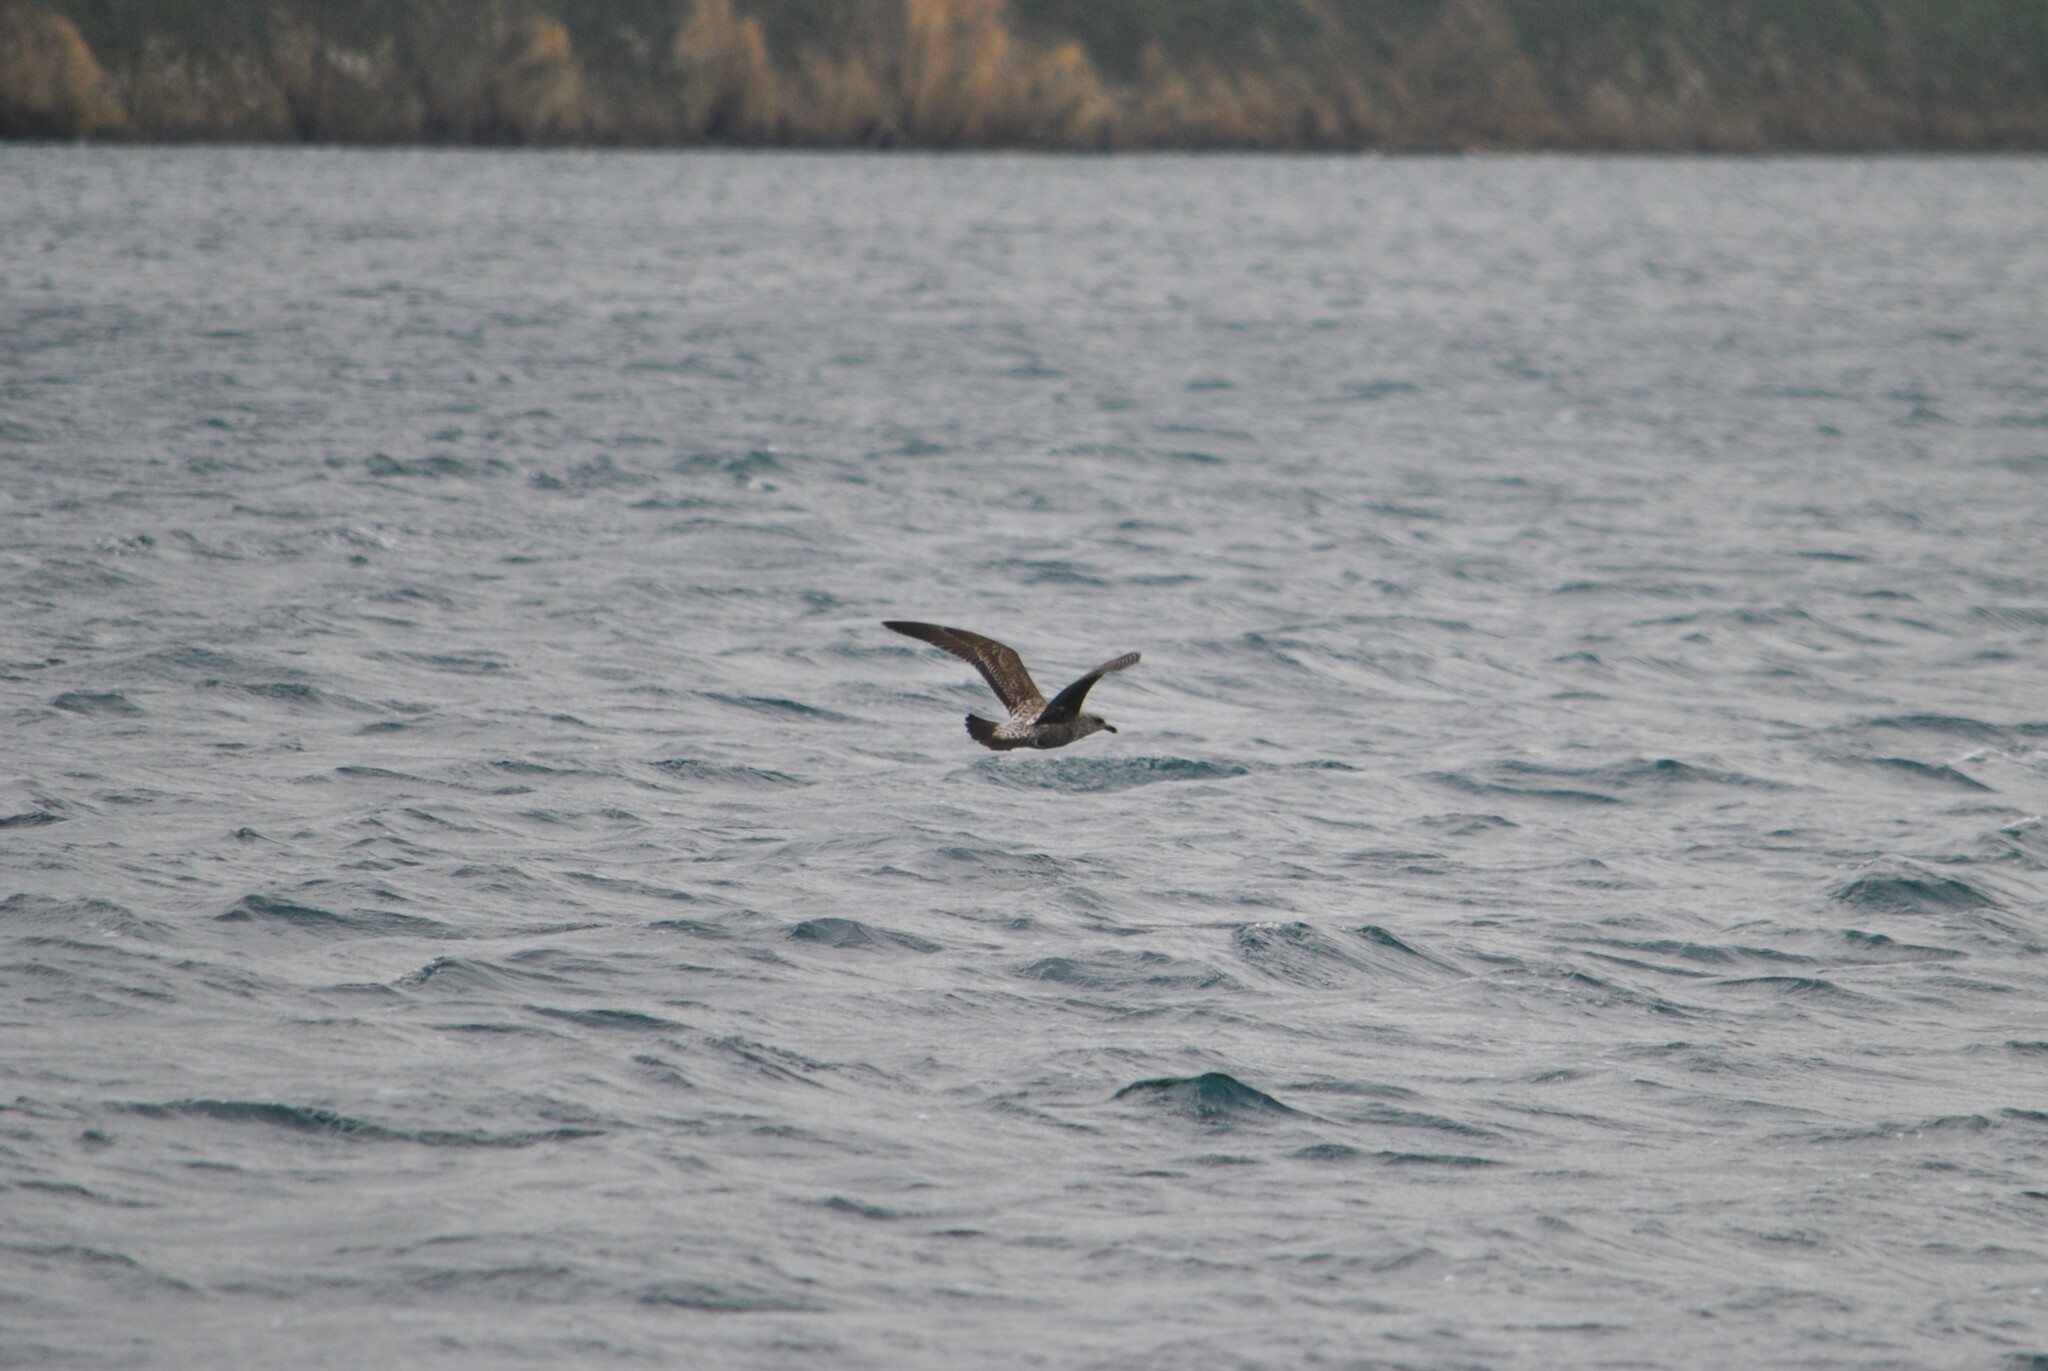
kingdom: Animalia
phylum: Chordata
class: Aves
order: Charadriiformes
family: Laridae
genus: Larus
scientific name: Larus dominicanus
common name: Kelp gull
